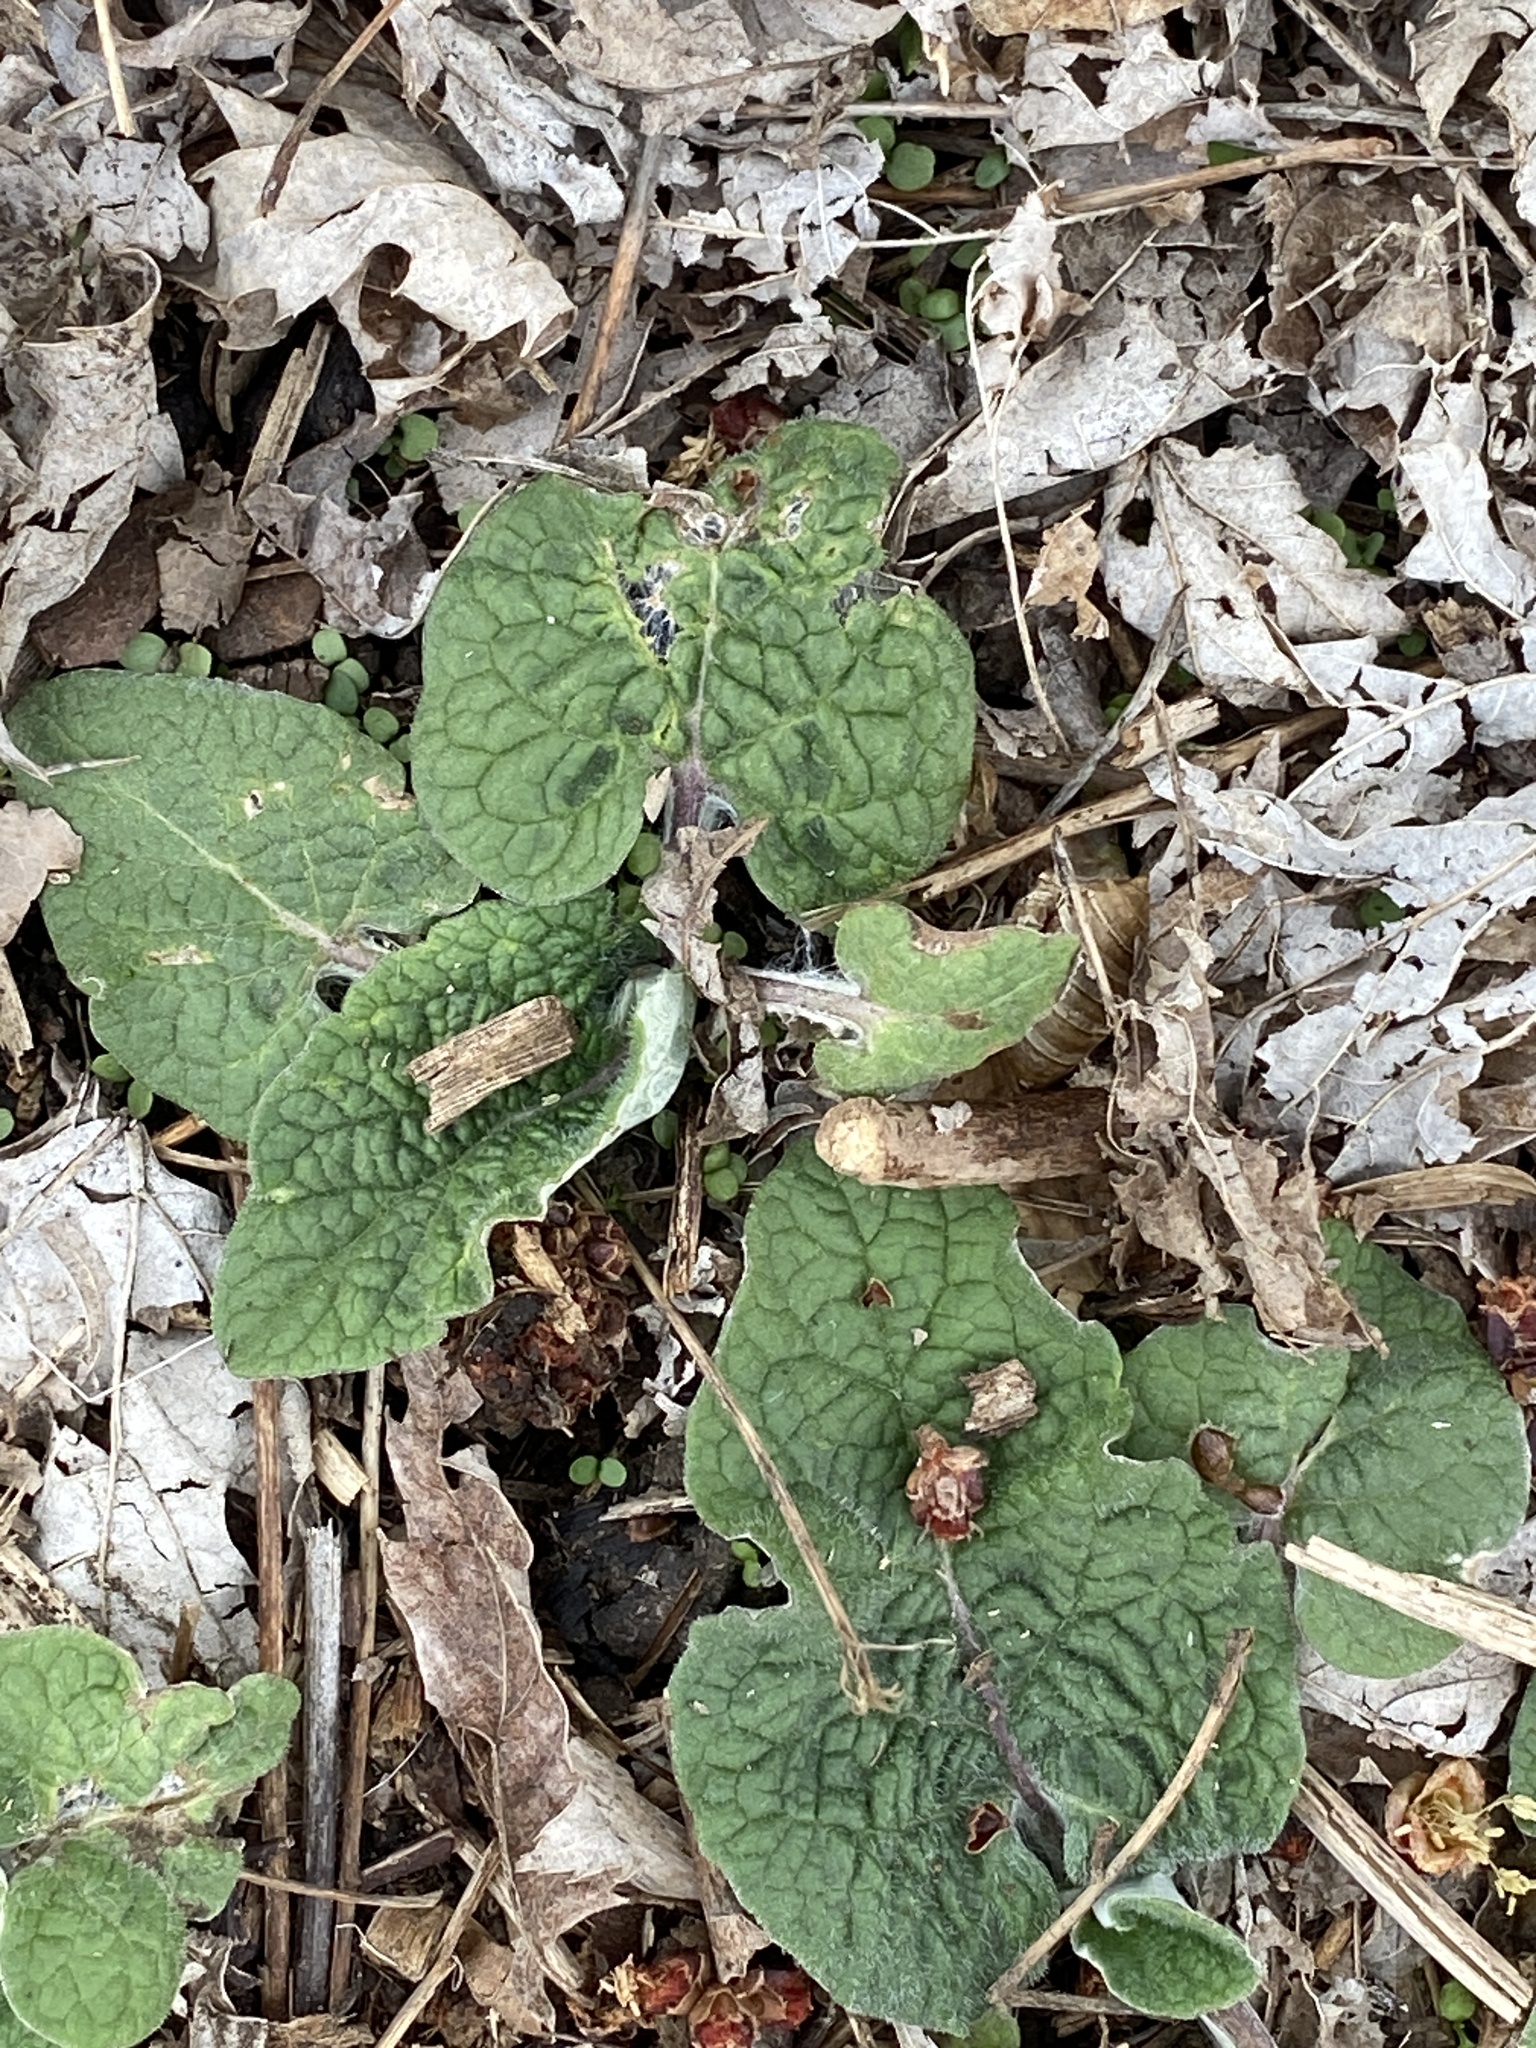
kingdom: Plantae
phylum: Tracheophyta
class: Magnoliopsida
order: Asterales
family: Asteraceae
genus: Arctium
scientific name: Arctium
